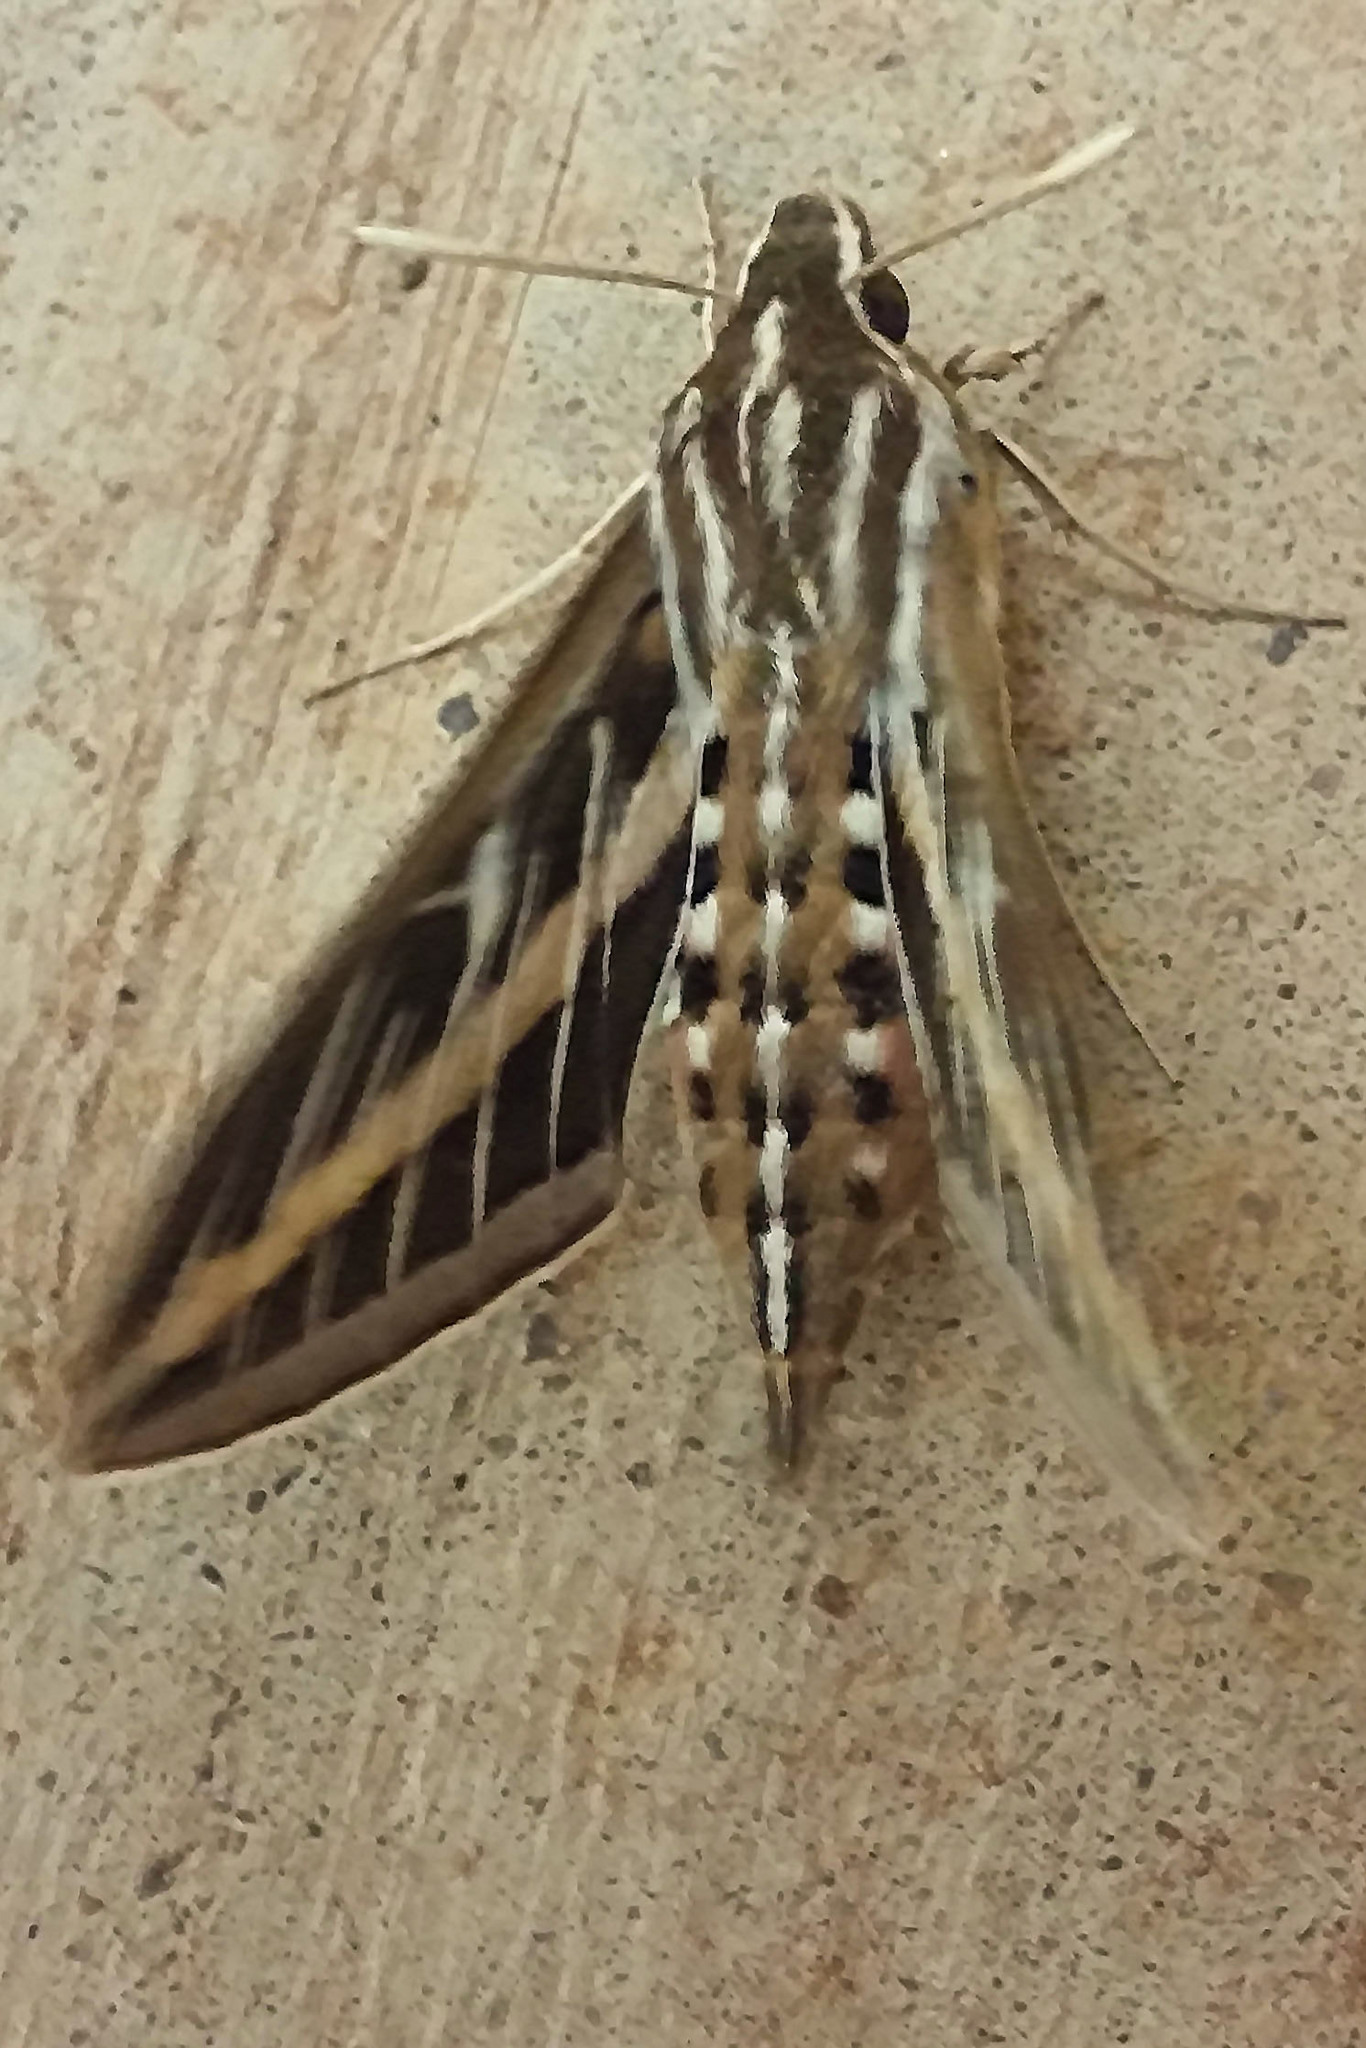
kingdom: Animalia
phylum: Arthropoda
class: Insecta
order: Lepidoptera
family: Sphingidae
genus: Hyles
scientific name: Hyles lineata
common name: White-lined sphinx
